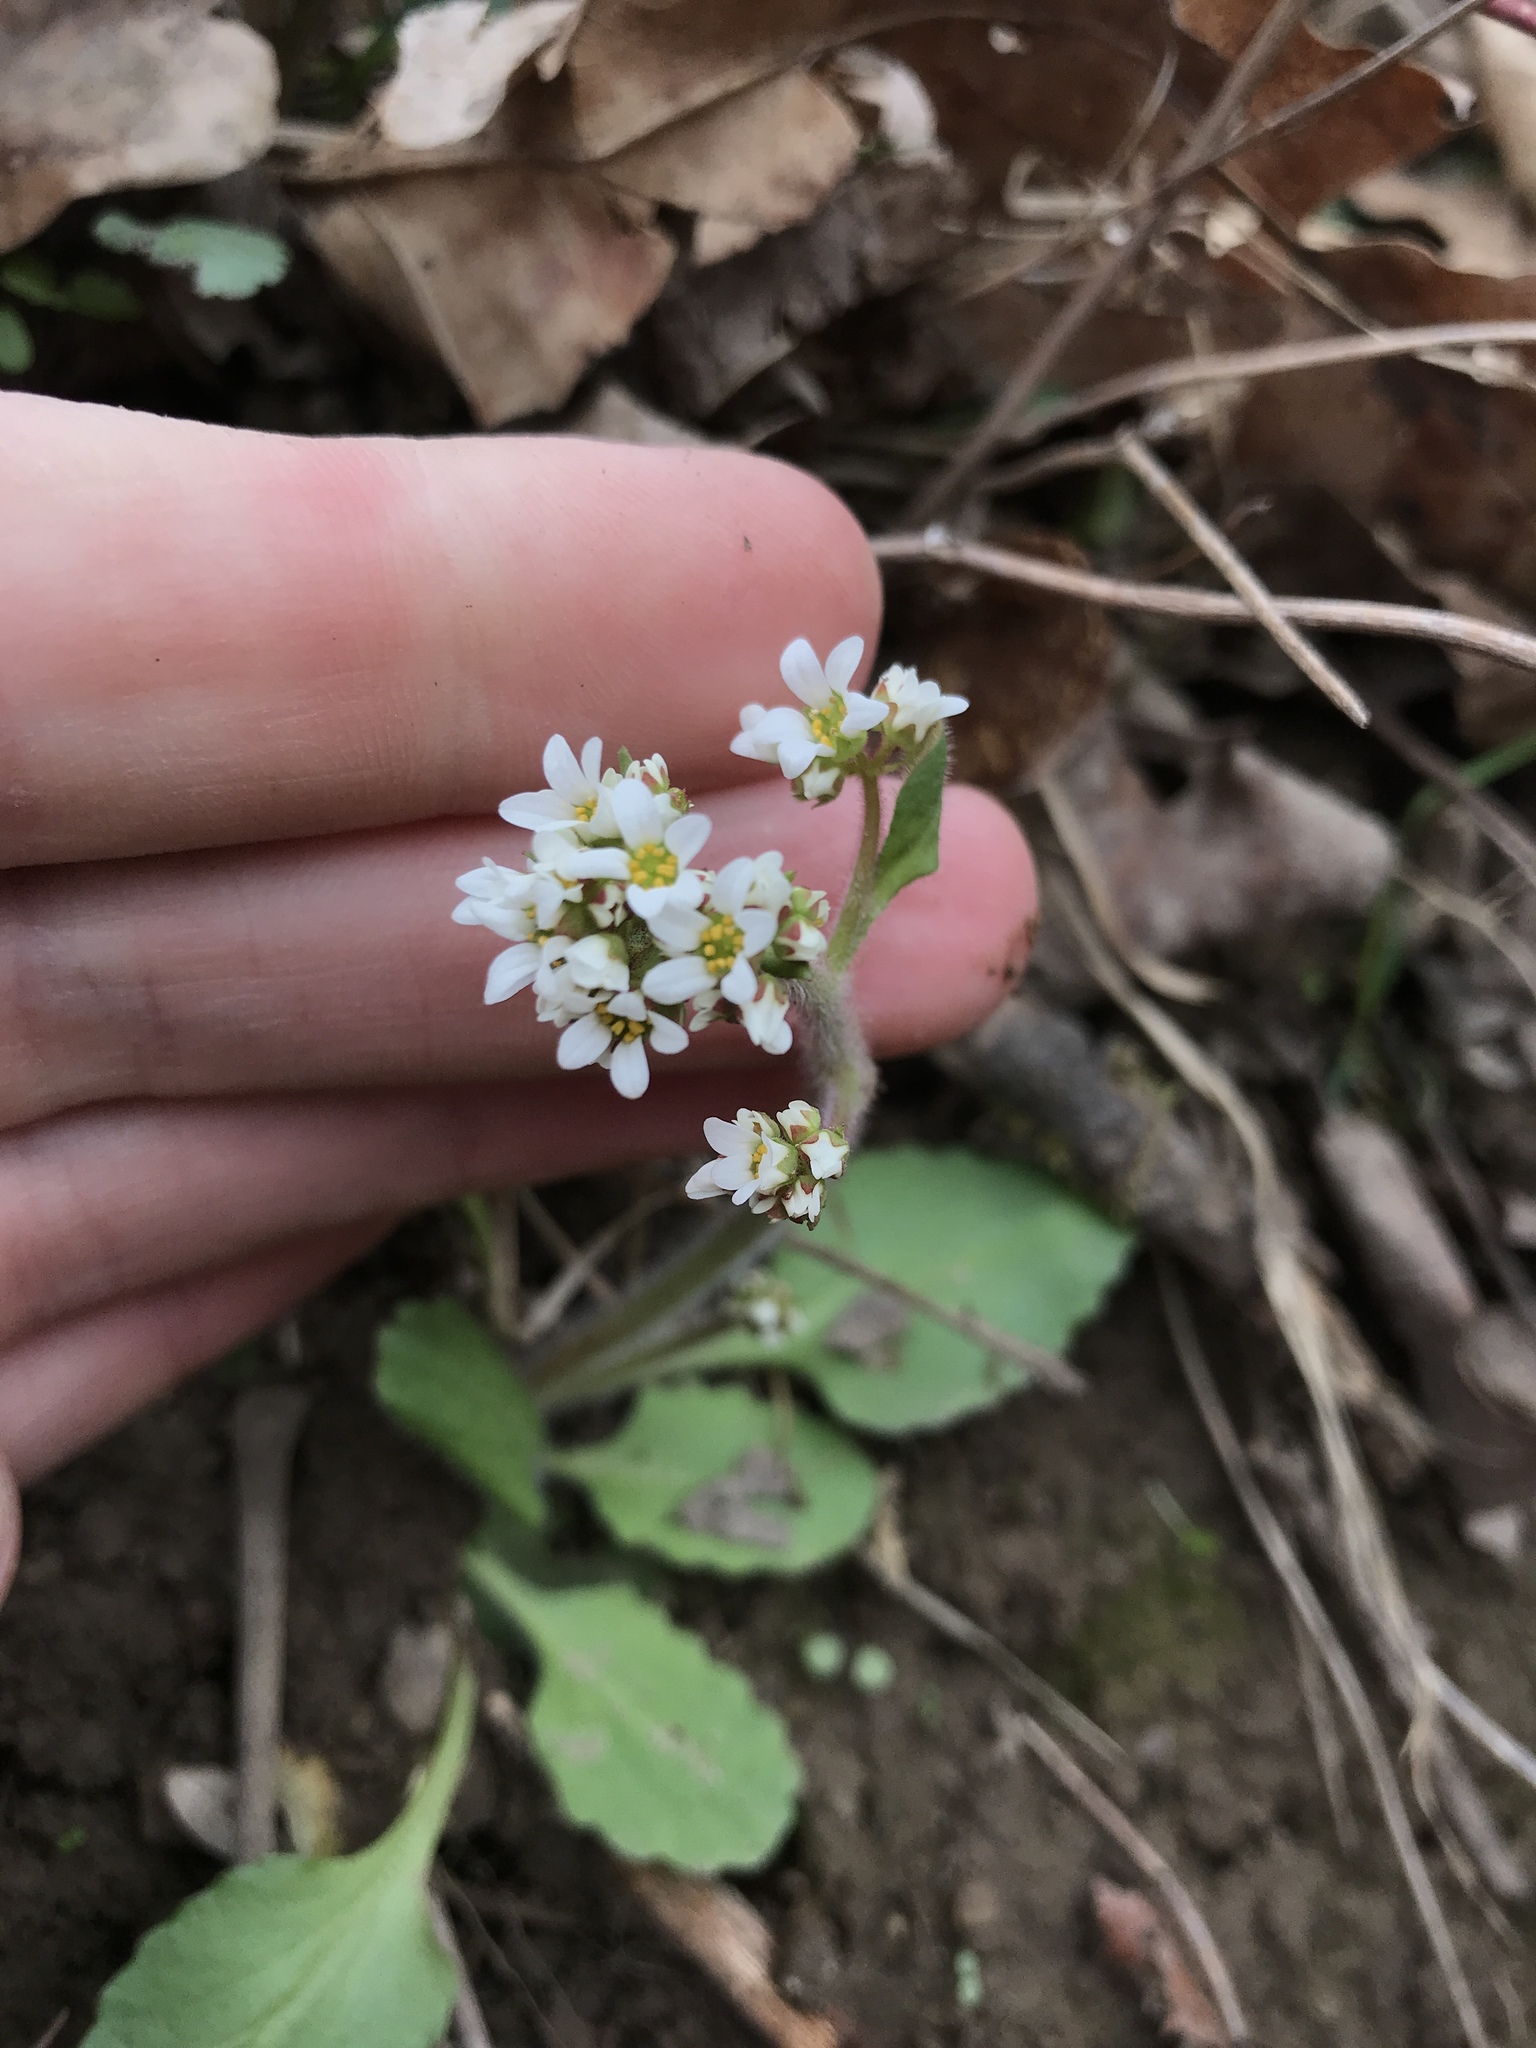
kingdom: Plantae
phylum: Tracheophyta
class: Magnoliopsida
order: Saxifragales
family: Saxifragaceae
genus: Micranthes
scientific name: Micranthes virginiensis
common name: Early saxifrage
